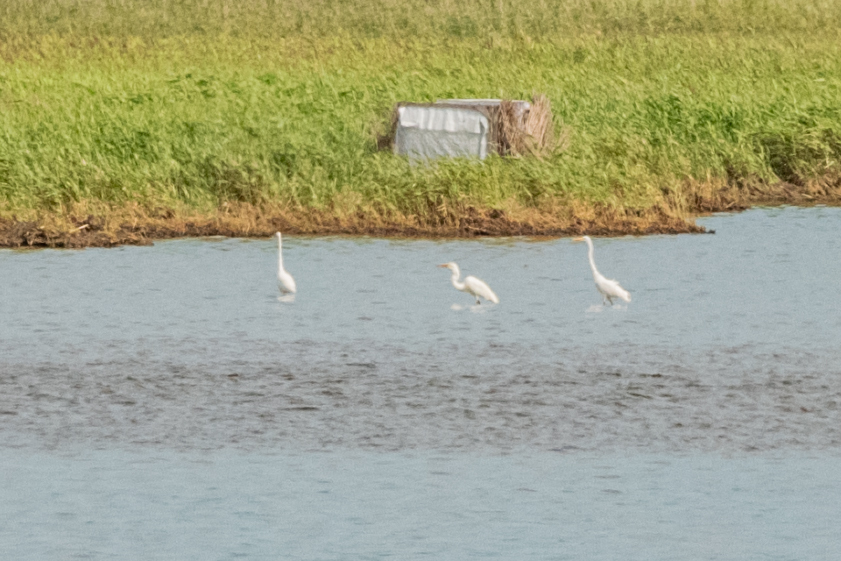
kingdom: Animalia
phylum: Chordata
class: Aves
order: Pelecaniformes
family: Ardeidae
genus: Ardea
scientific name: Ardea alba
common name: Great egret
